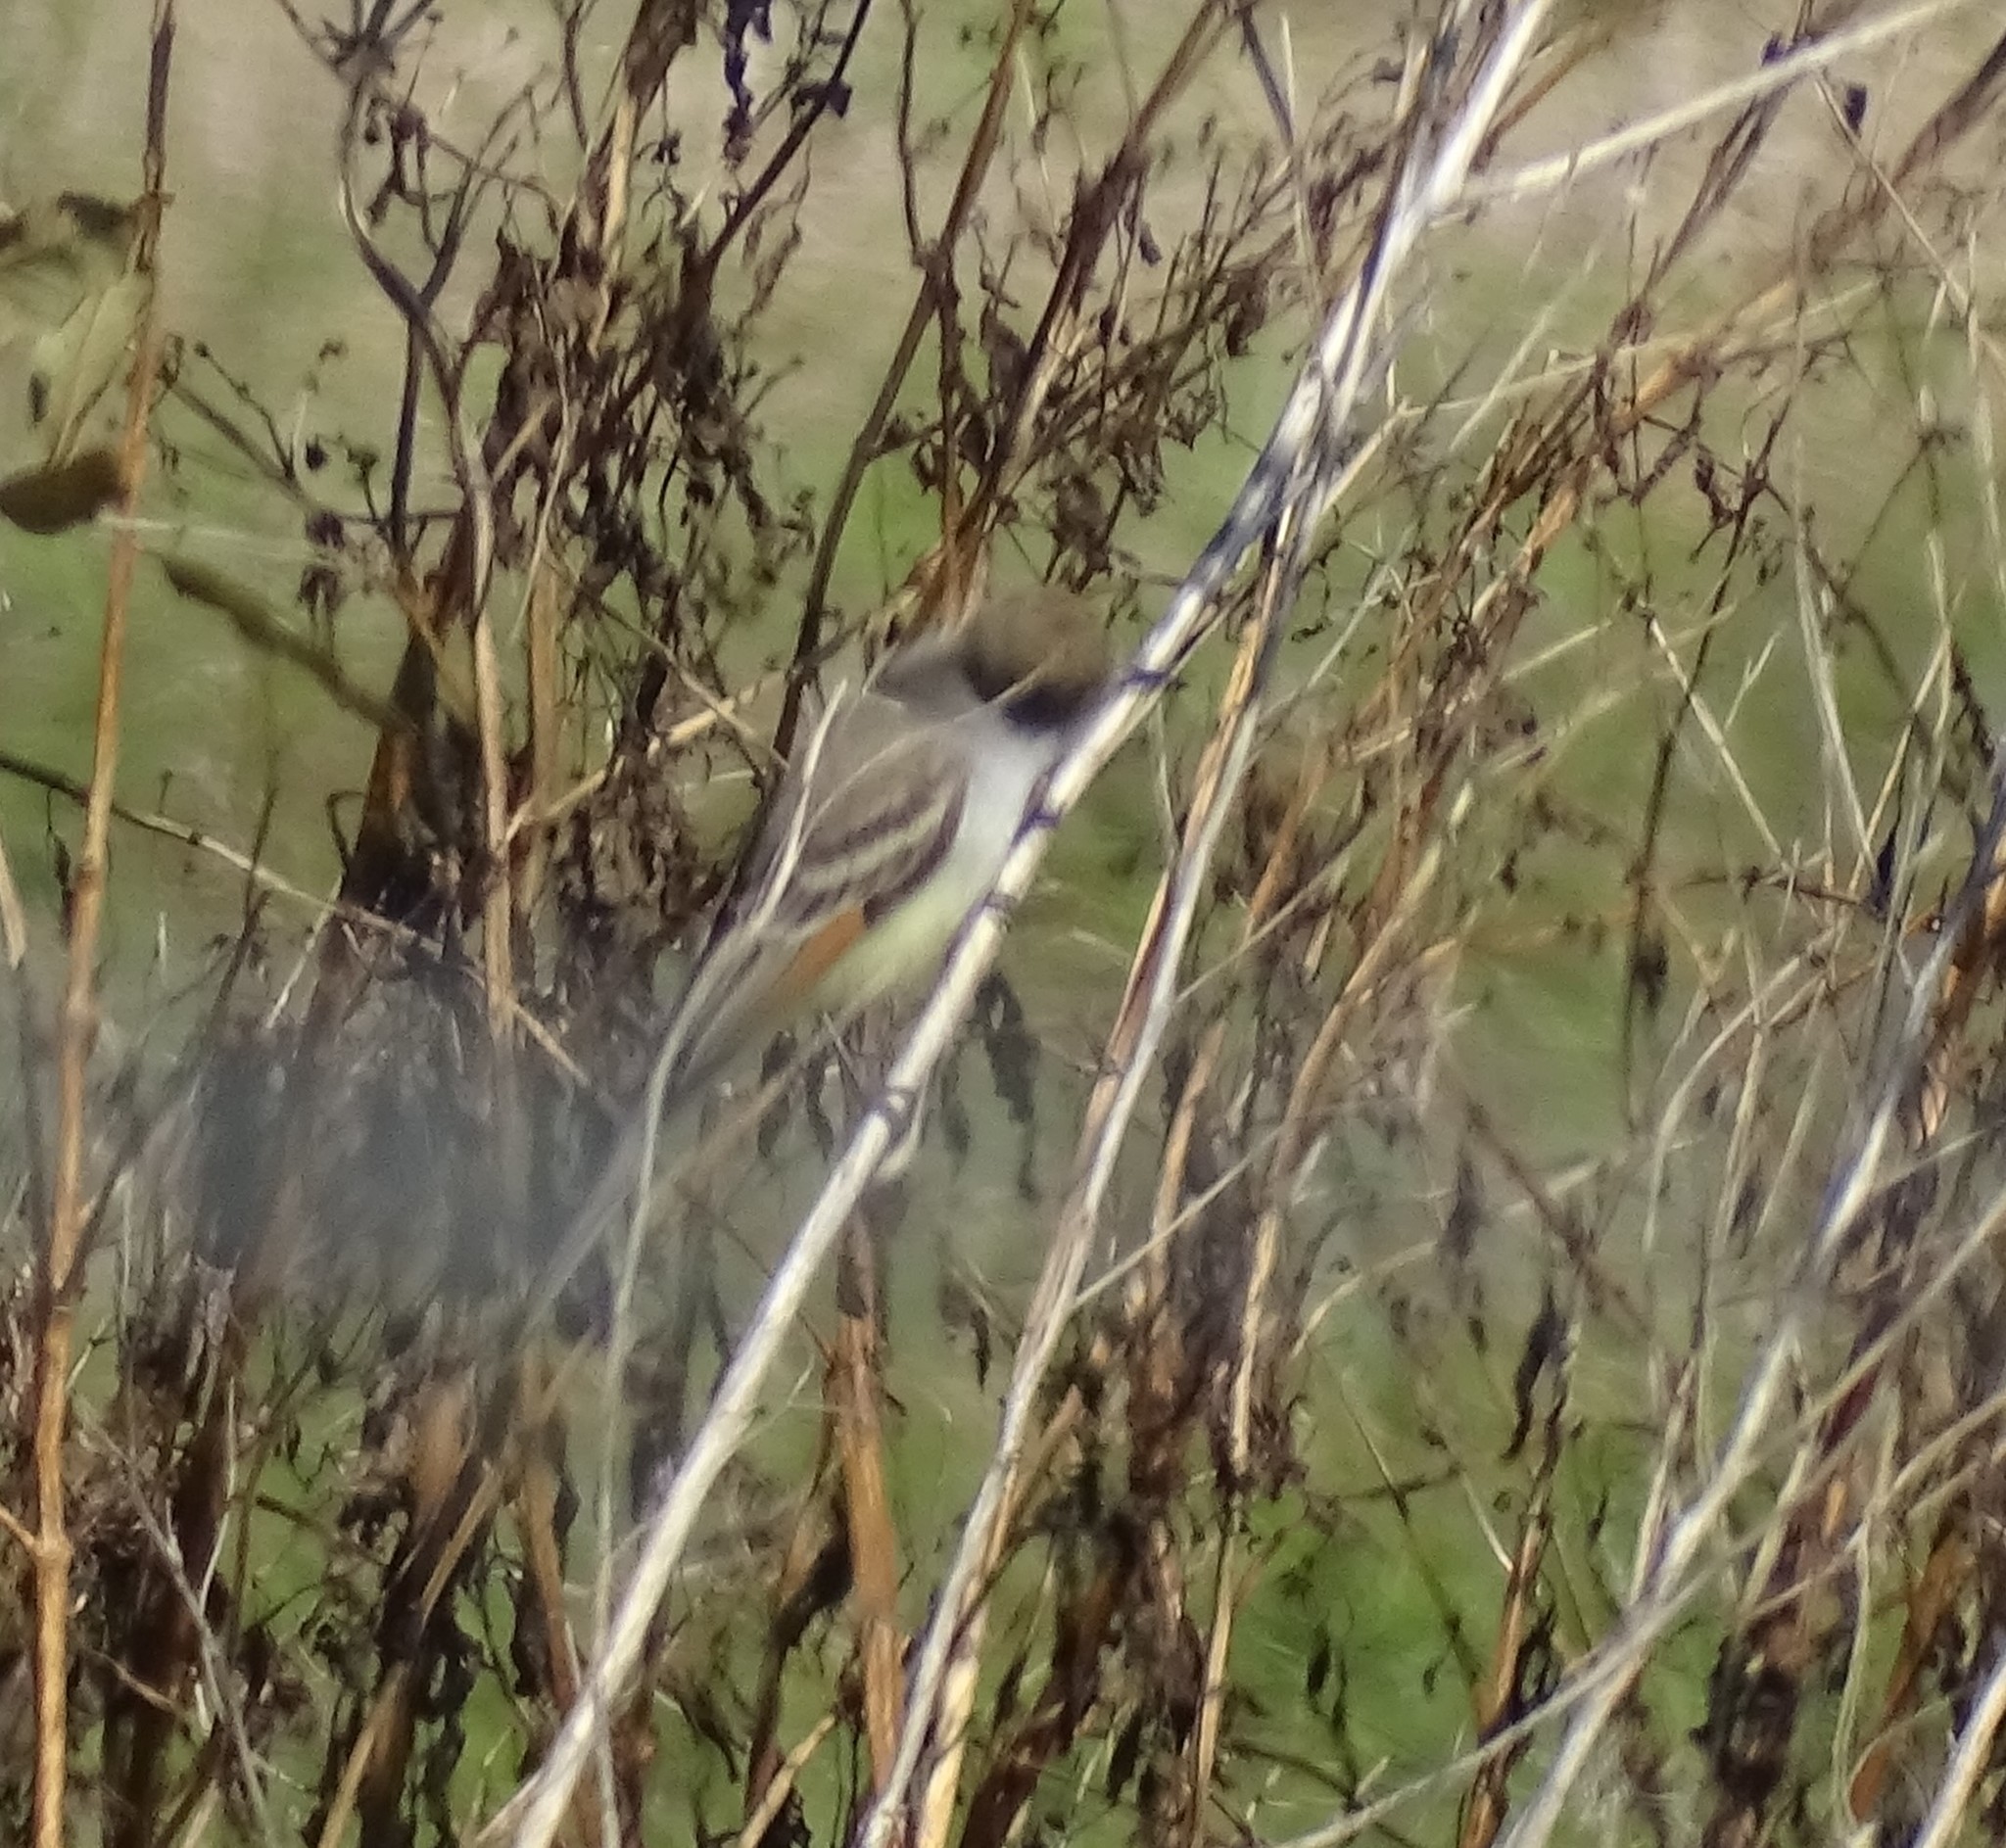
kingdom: Animalia
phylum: Chordata
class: Aves
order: Passeriformes
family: Tyrannidae
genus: Myiarchus
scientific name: Myiarchus cinerascens
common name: Ash-throated flycatcher
